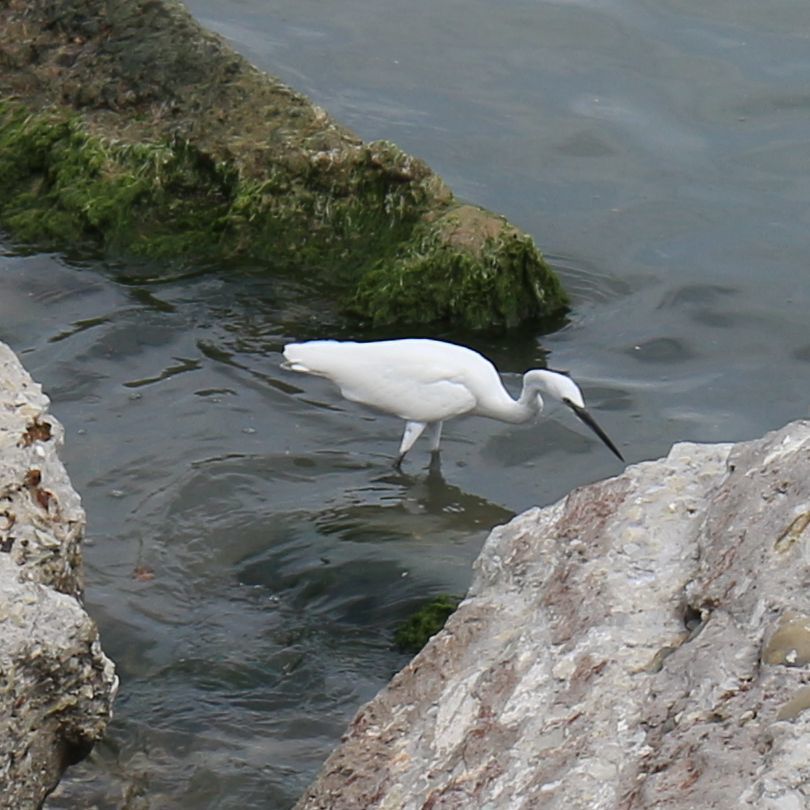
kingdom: Animalia
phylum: Chordata
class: Aves
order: Pelecaniformes
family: Ardeidae
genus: Egretta
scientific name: Egretta garzetta
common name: Little egret
